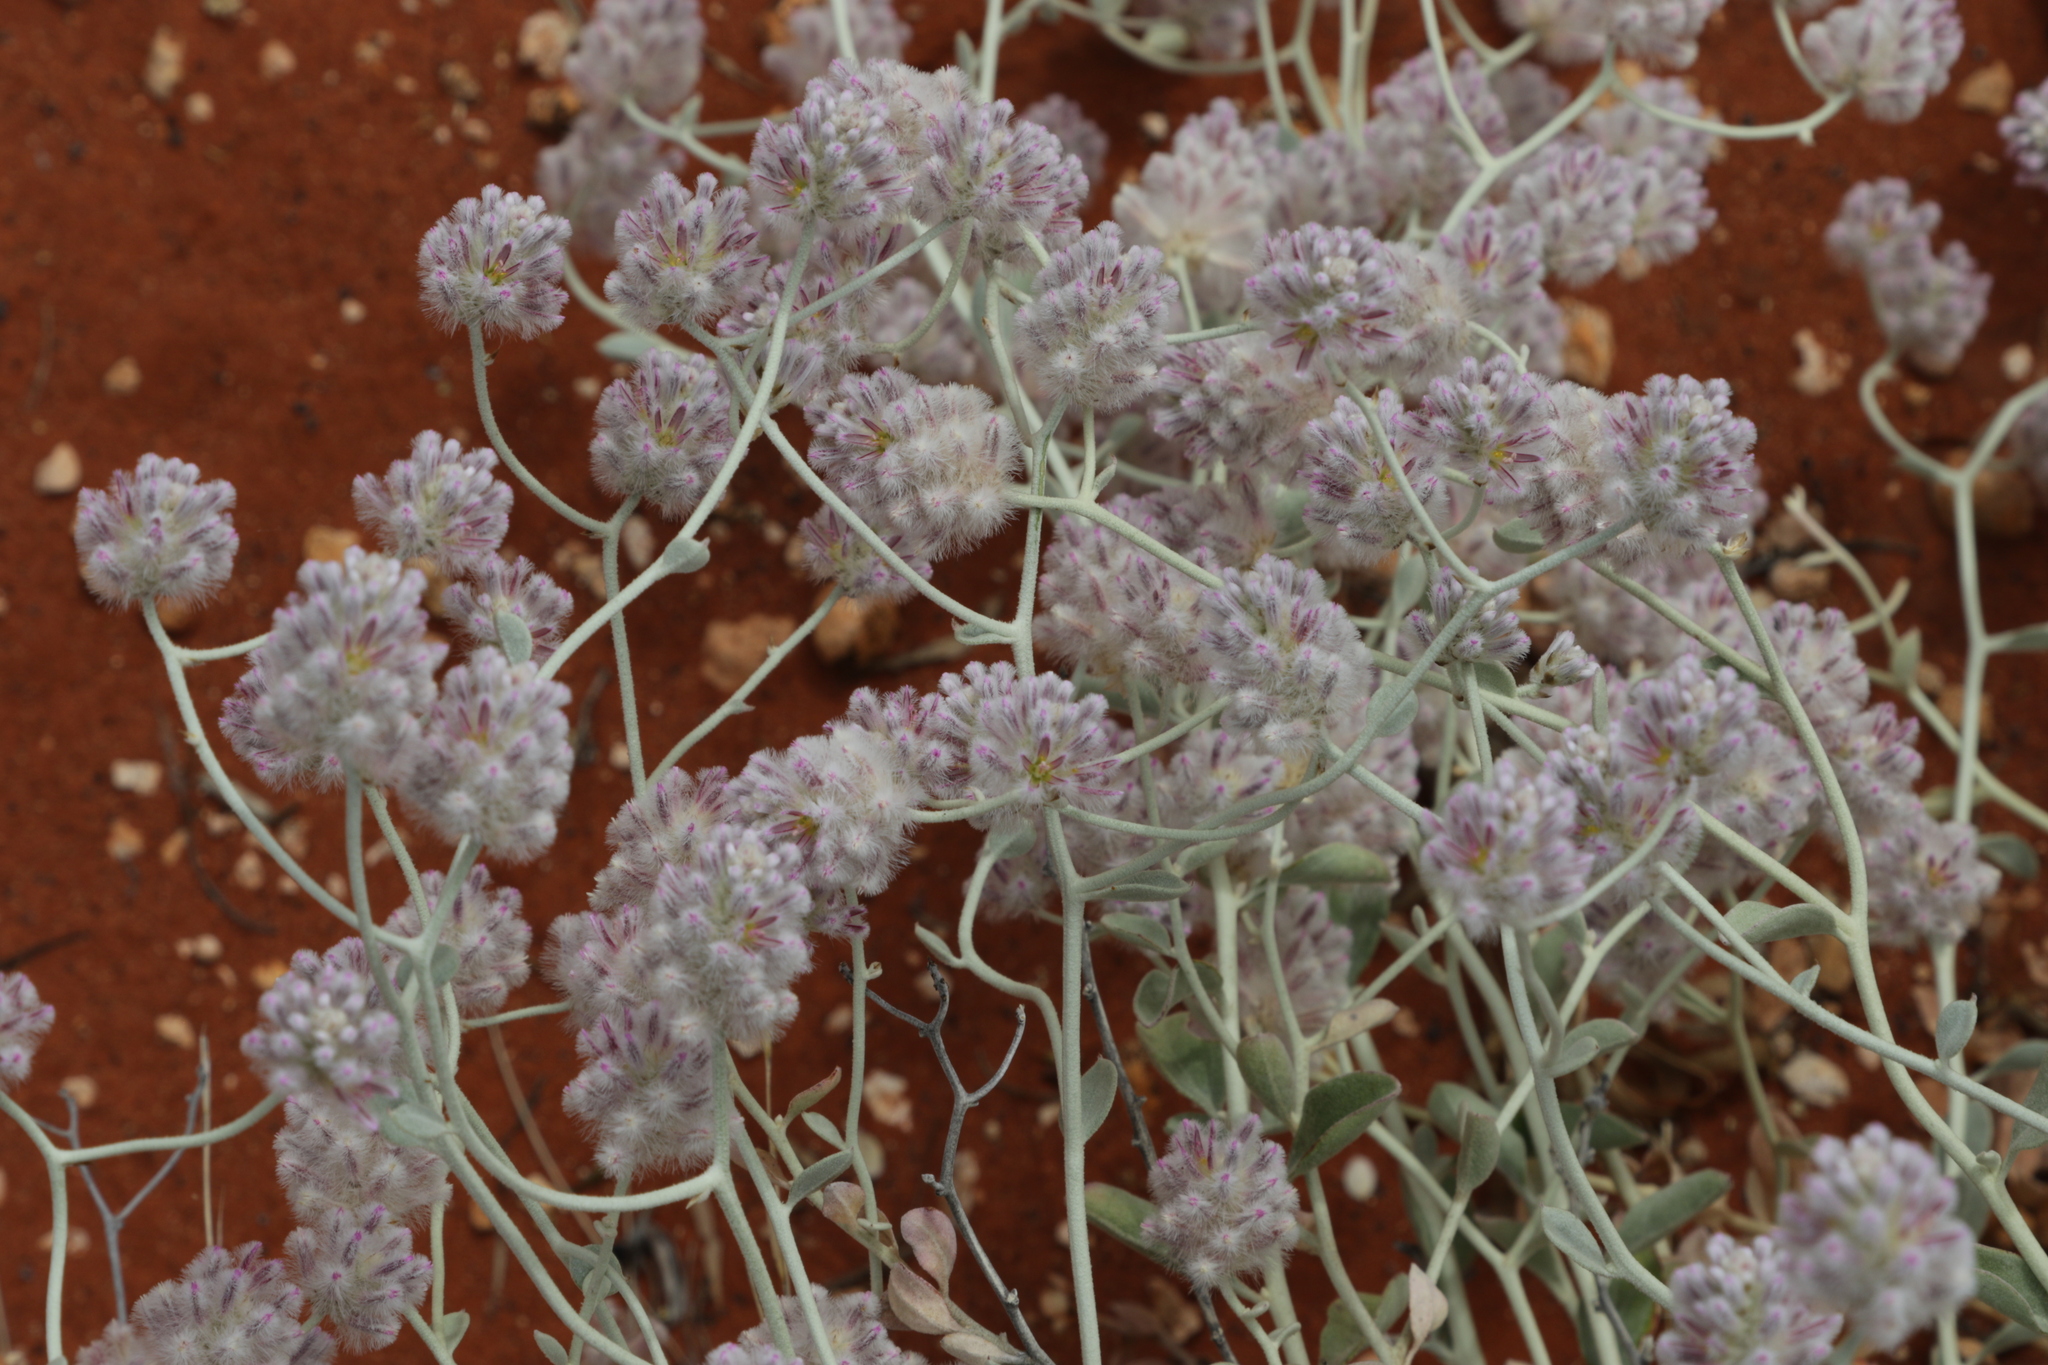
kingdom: Plantae
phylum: Tracheophyta
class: Magnoliopsida
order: Caryophyllales
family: Amaranthaceae
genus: Ptilotus
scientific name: Ptilotus obovatus
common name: Cottonbush
